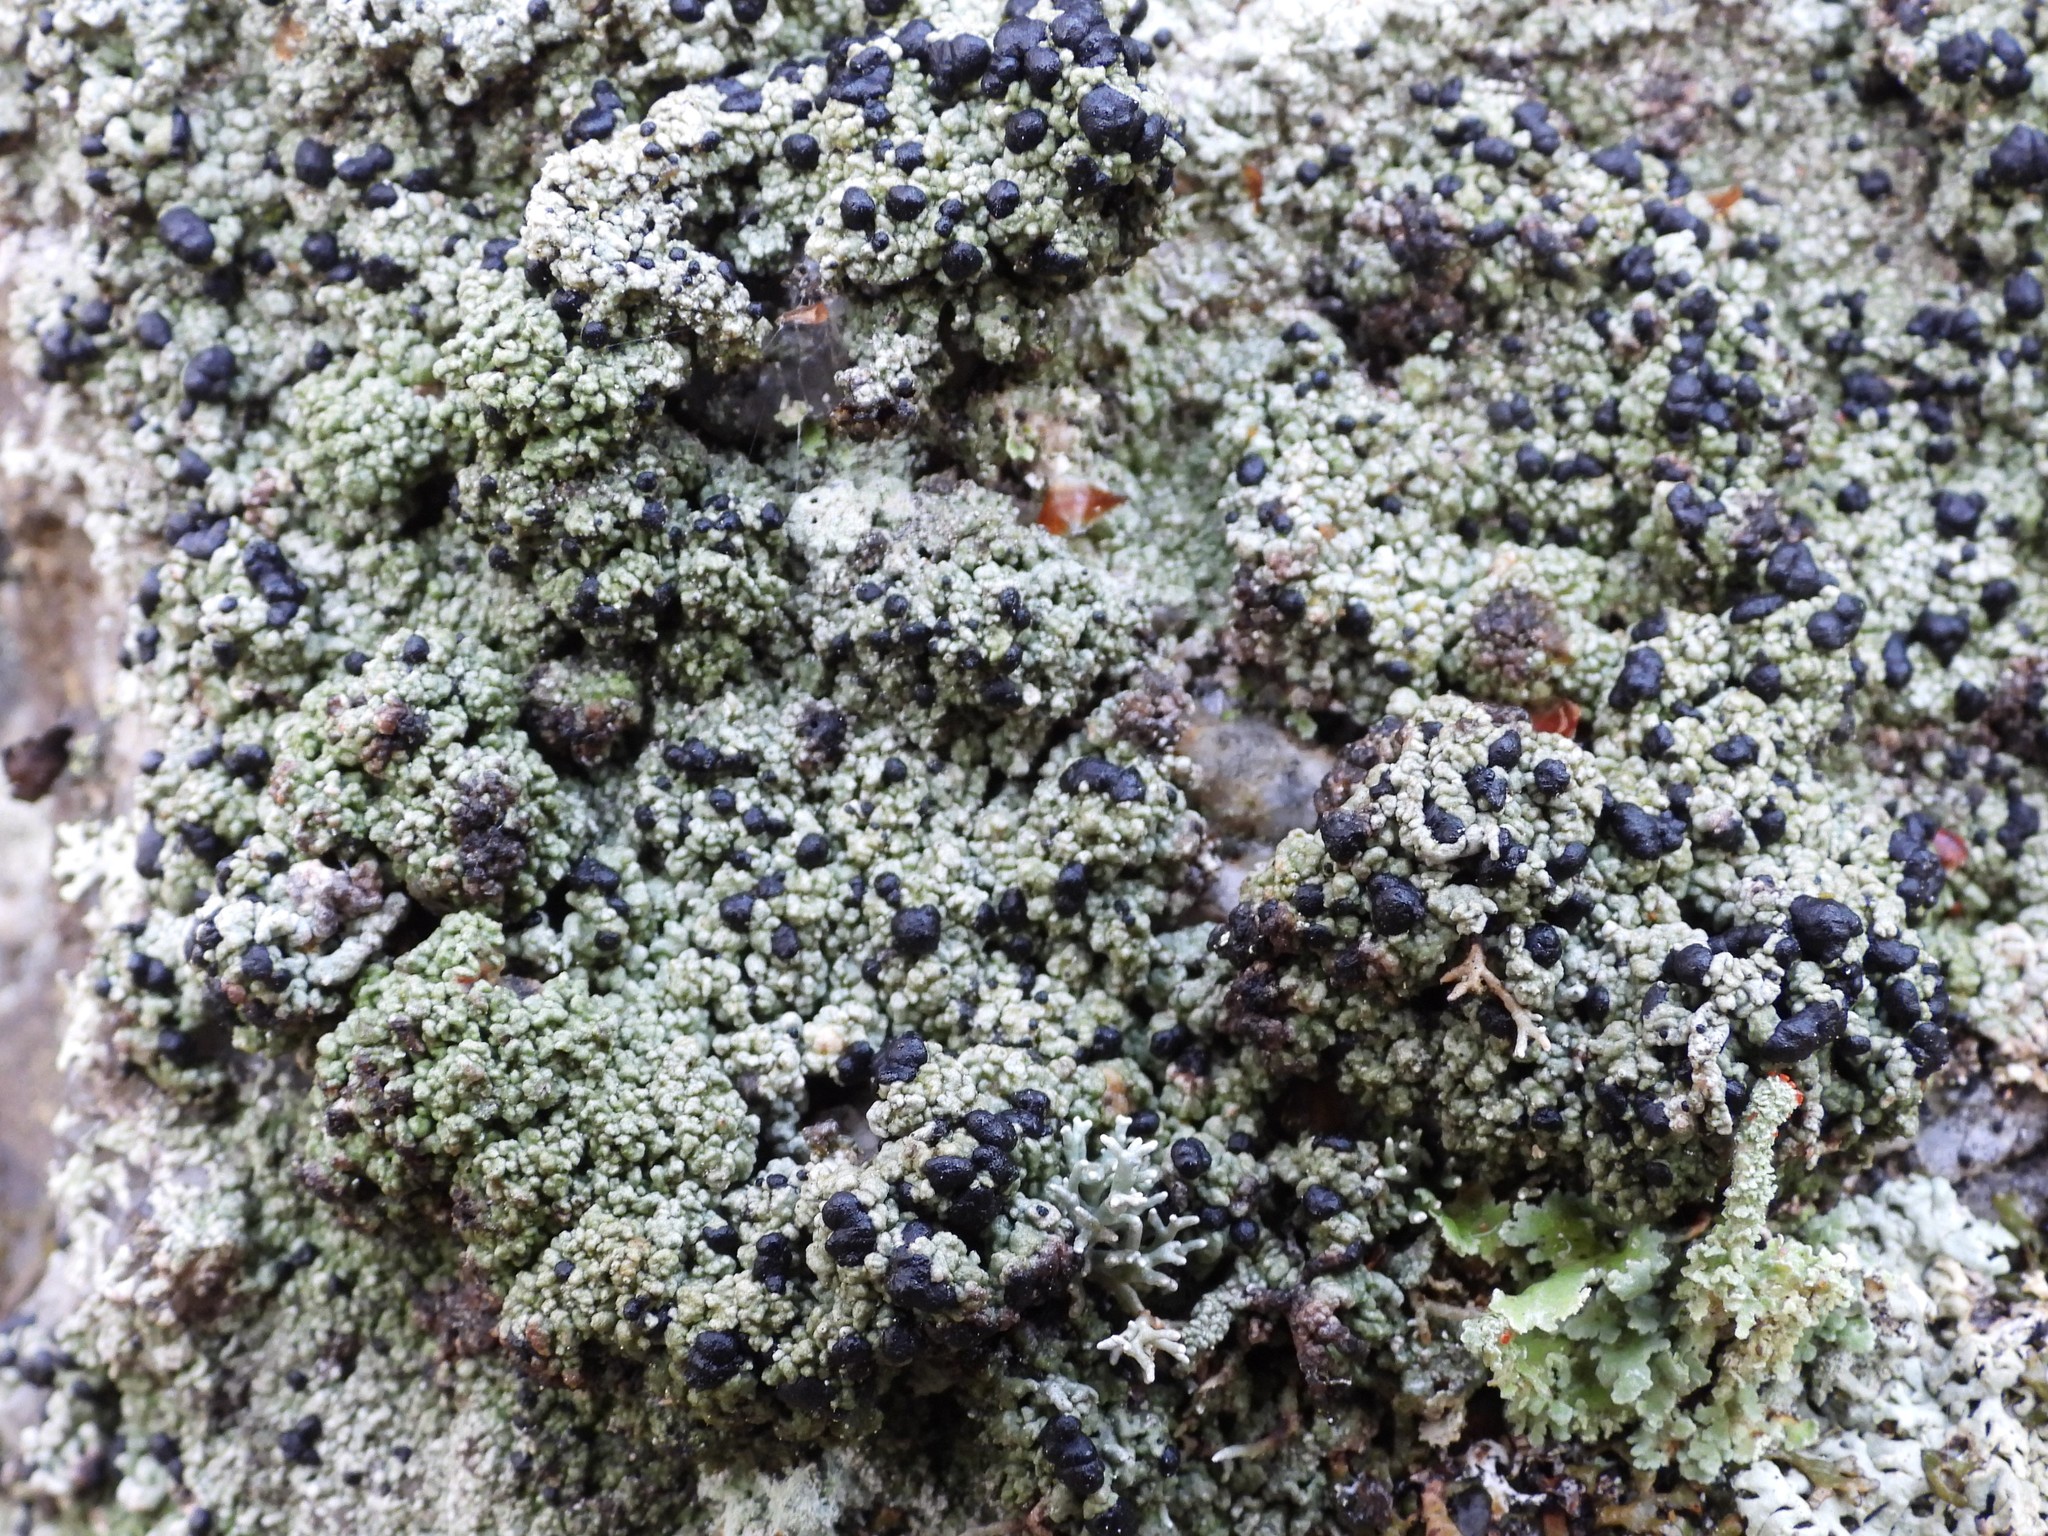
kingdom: Fungi
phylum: Ascomycota
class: Lecanoromycetes
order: Lecanorales
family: Tephromelataceae
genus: Mycoblastus
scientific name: Mycoblastus sanguinarius
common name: Bloody-heart lichen
